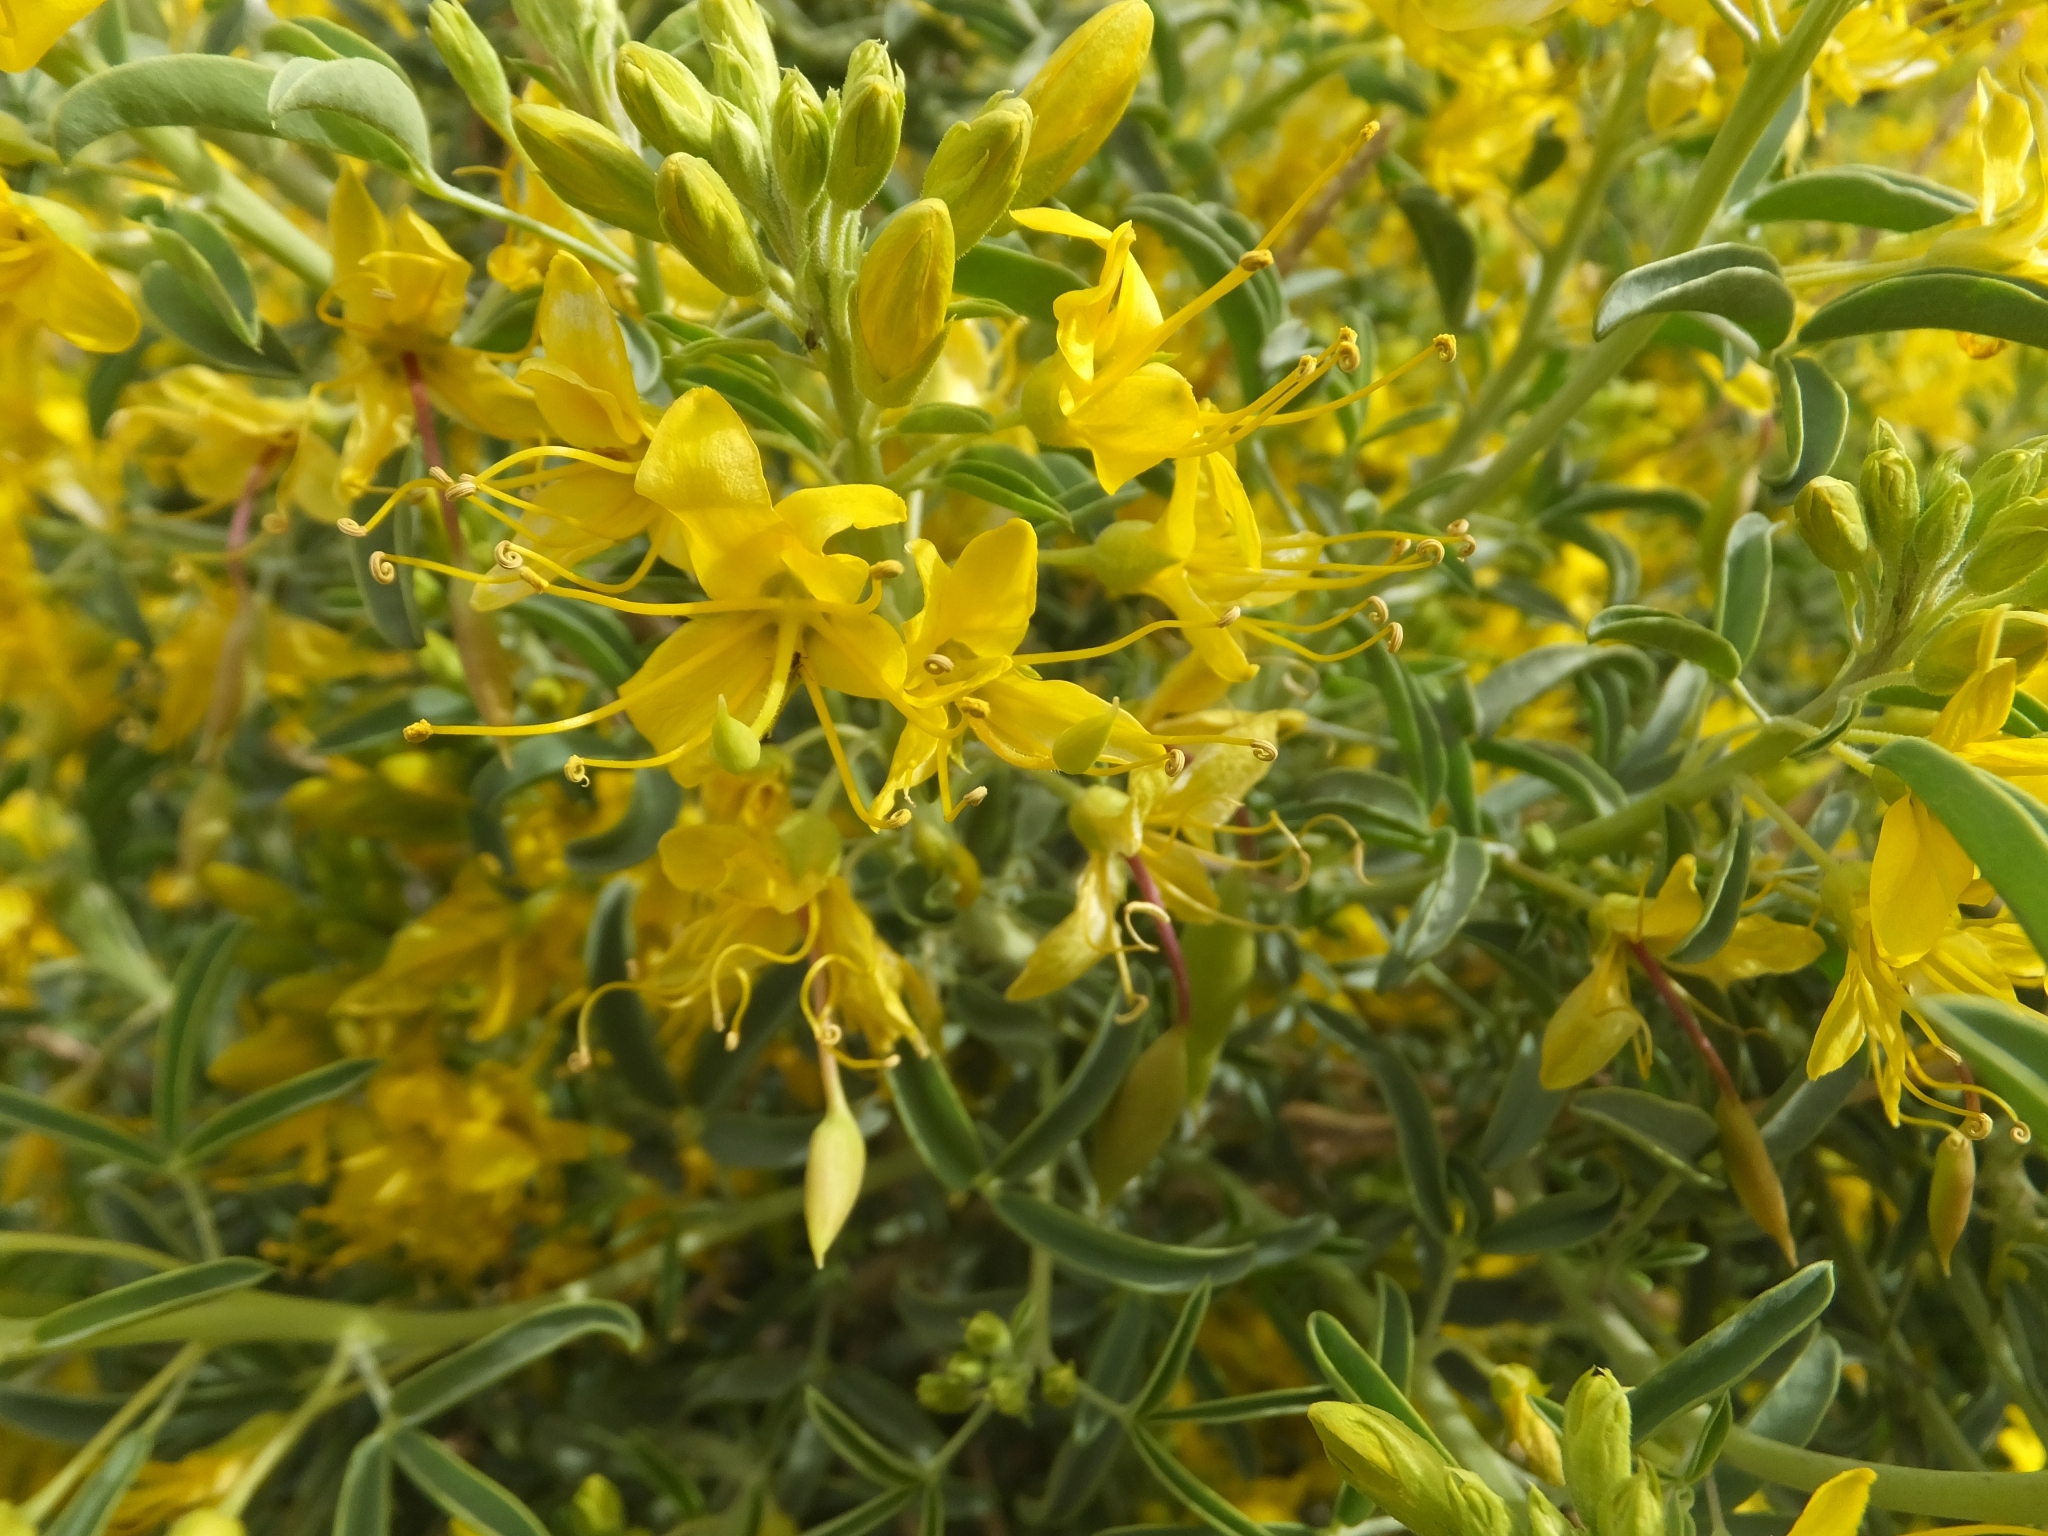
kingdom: Plantae
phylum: Tracheophyta
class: Magnoliopsida
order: Brassicales
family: Cleomaceae
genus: Cleomella
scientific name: Cleomella arborea
